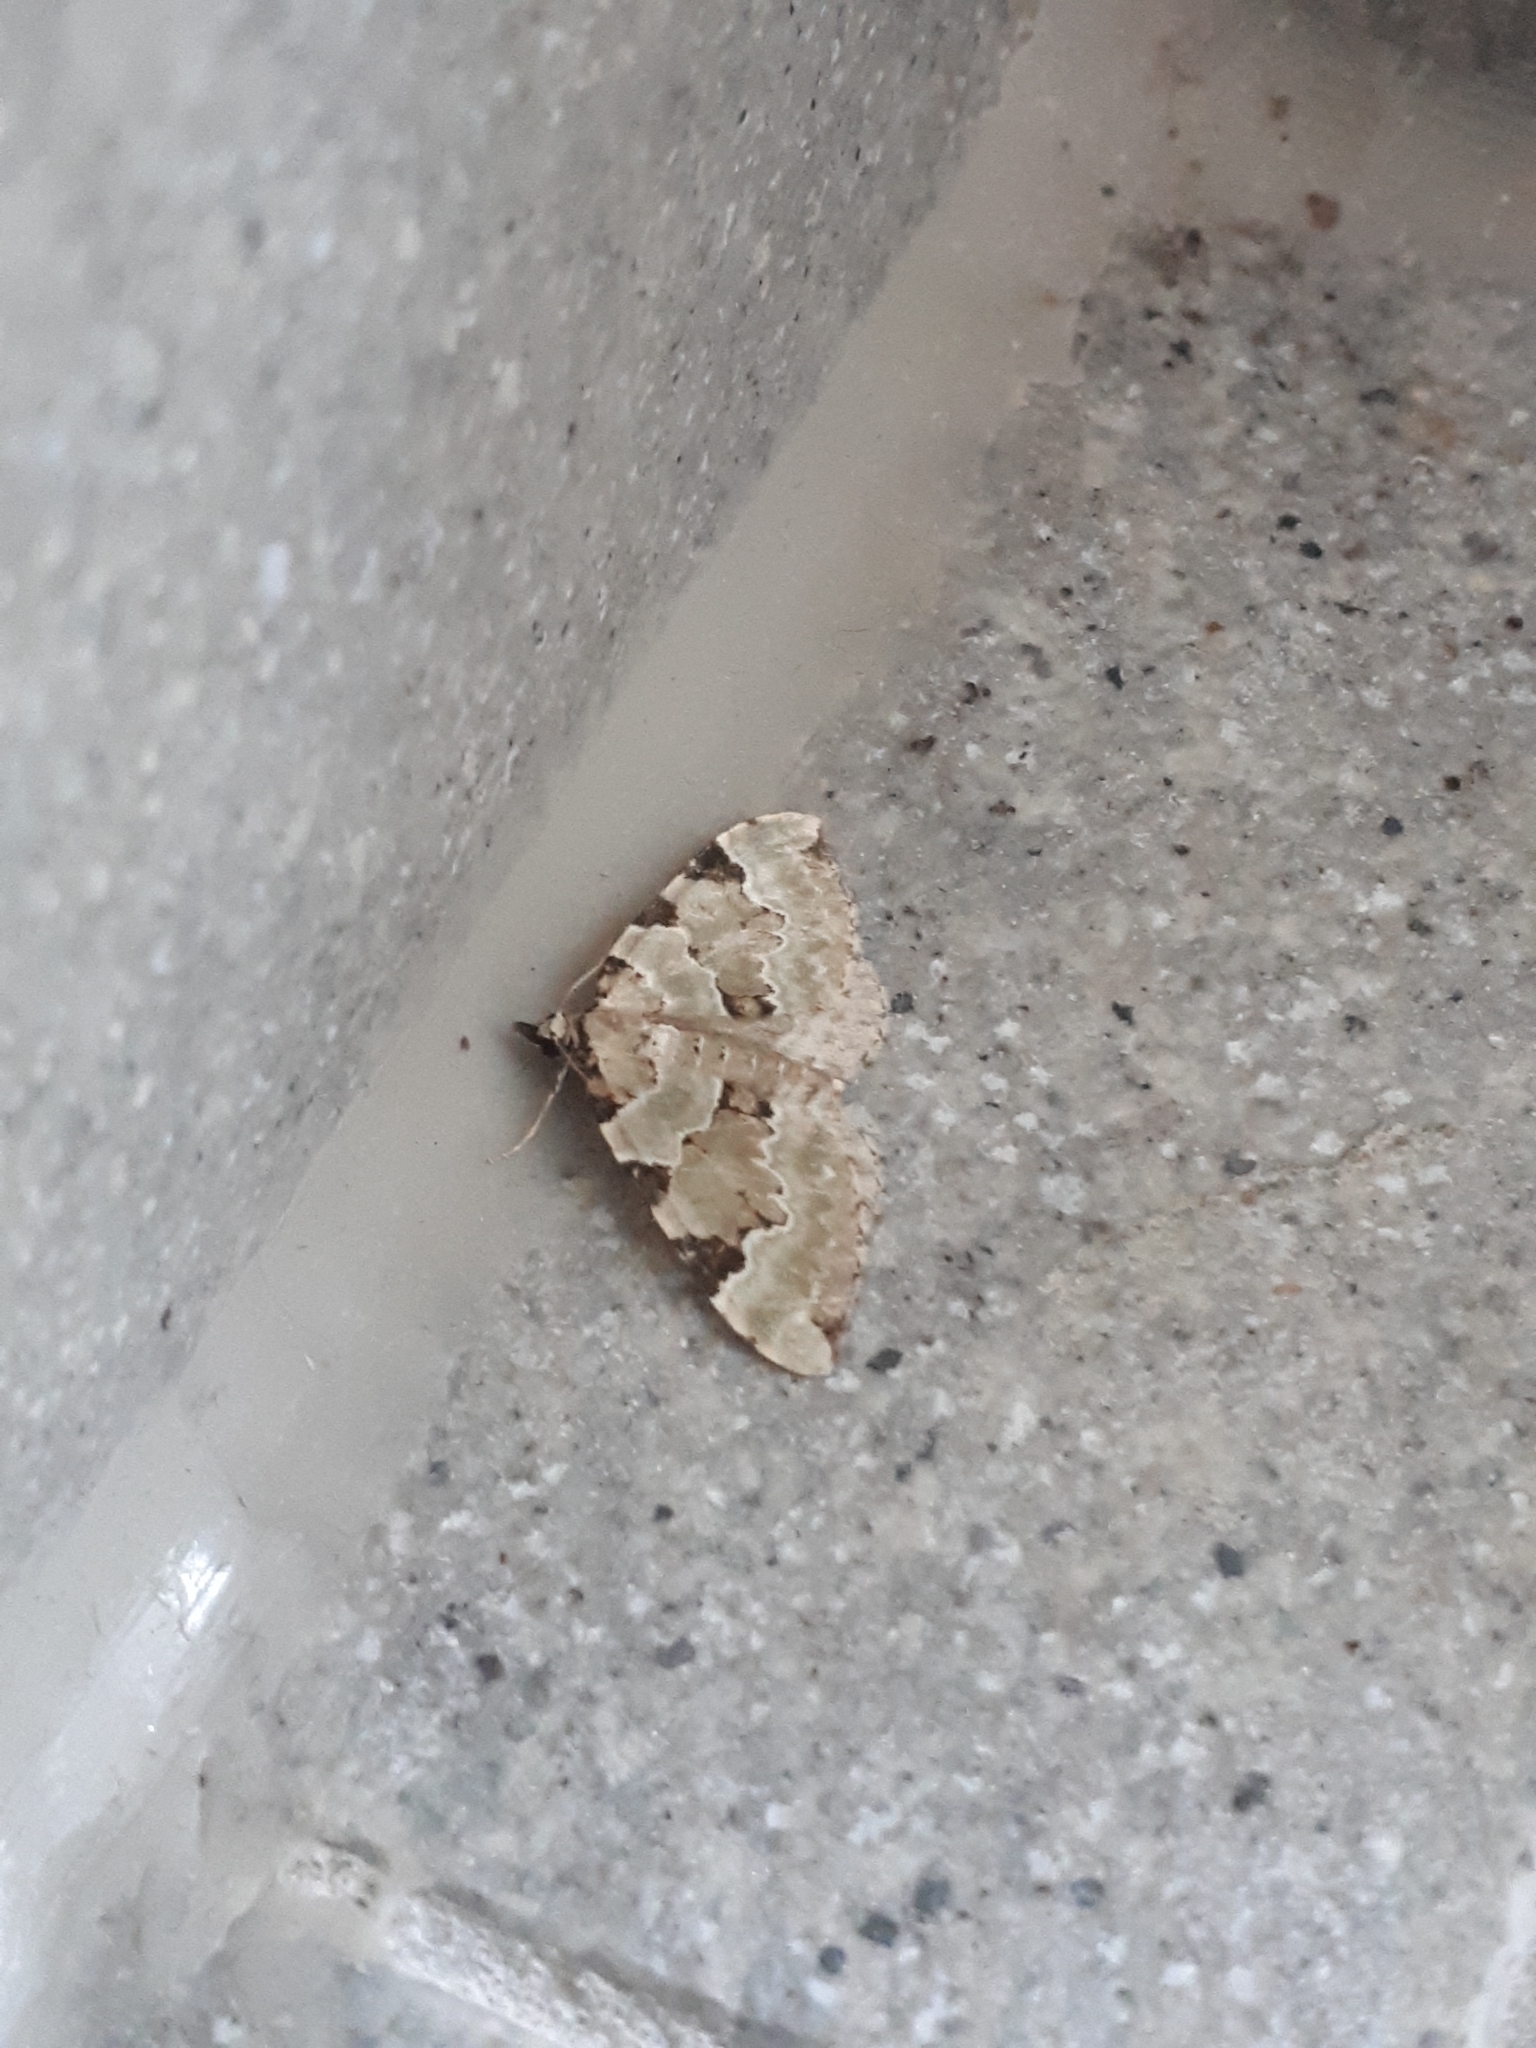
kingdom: Animalia
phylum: Arthropoda
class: Insecta
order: Lepidoptera
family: Geometridae
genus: Colostygia
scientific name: Colostygia pectinataria
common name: Green carpet
